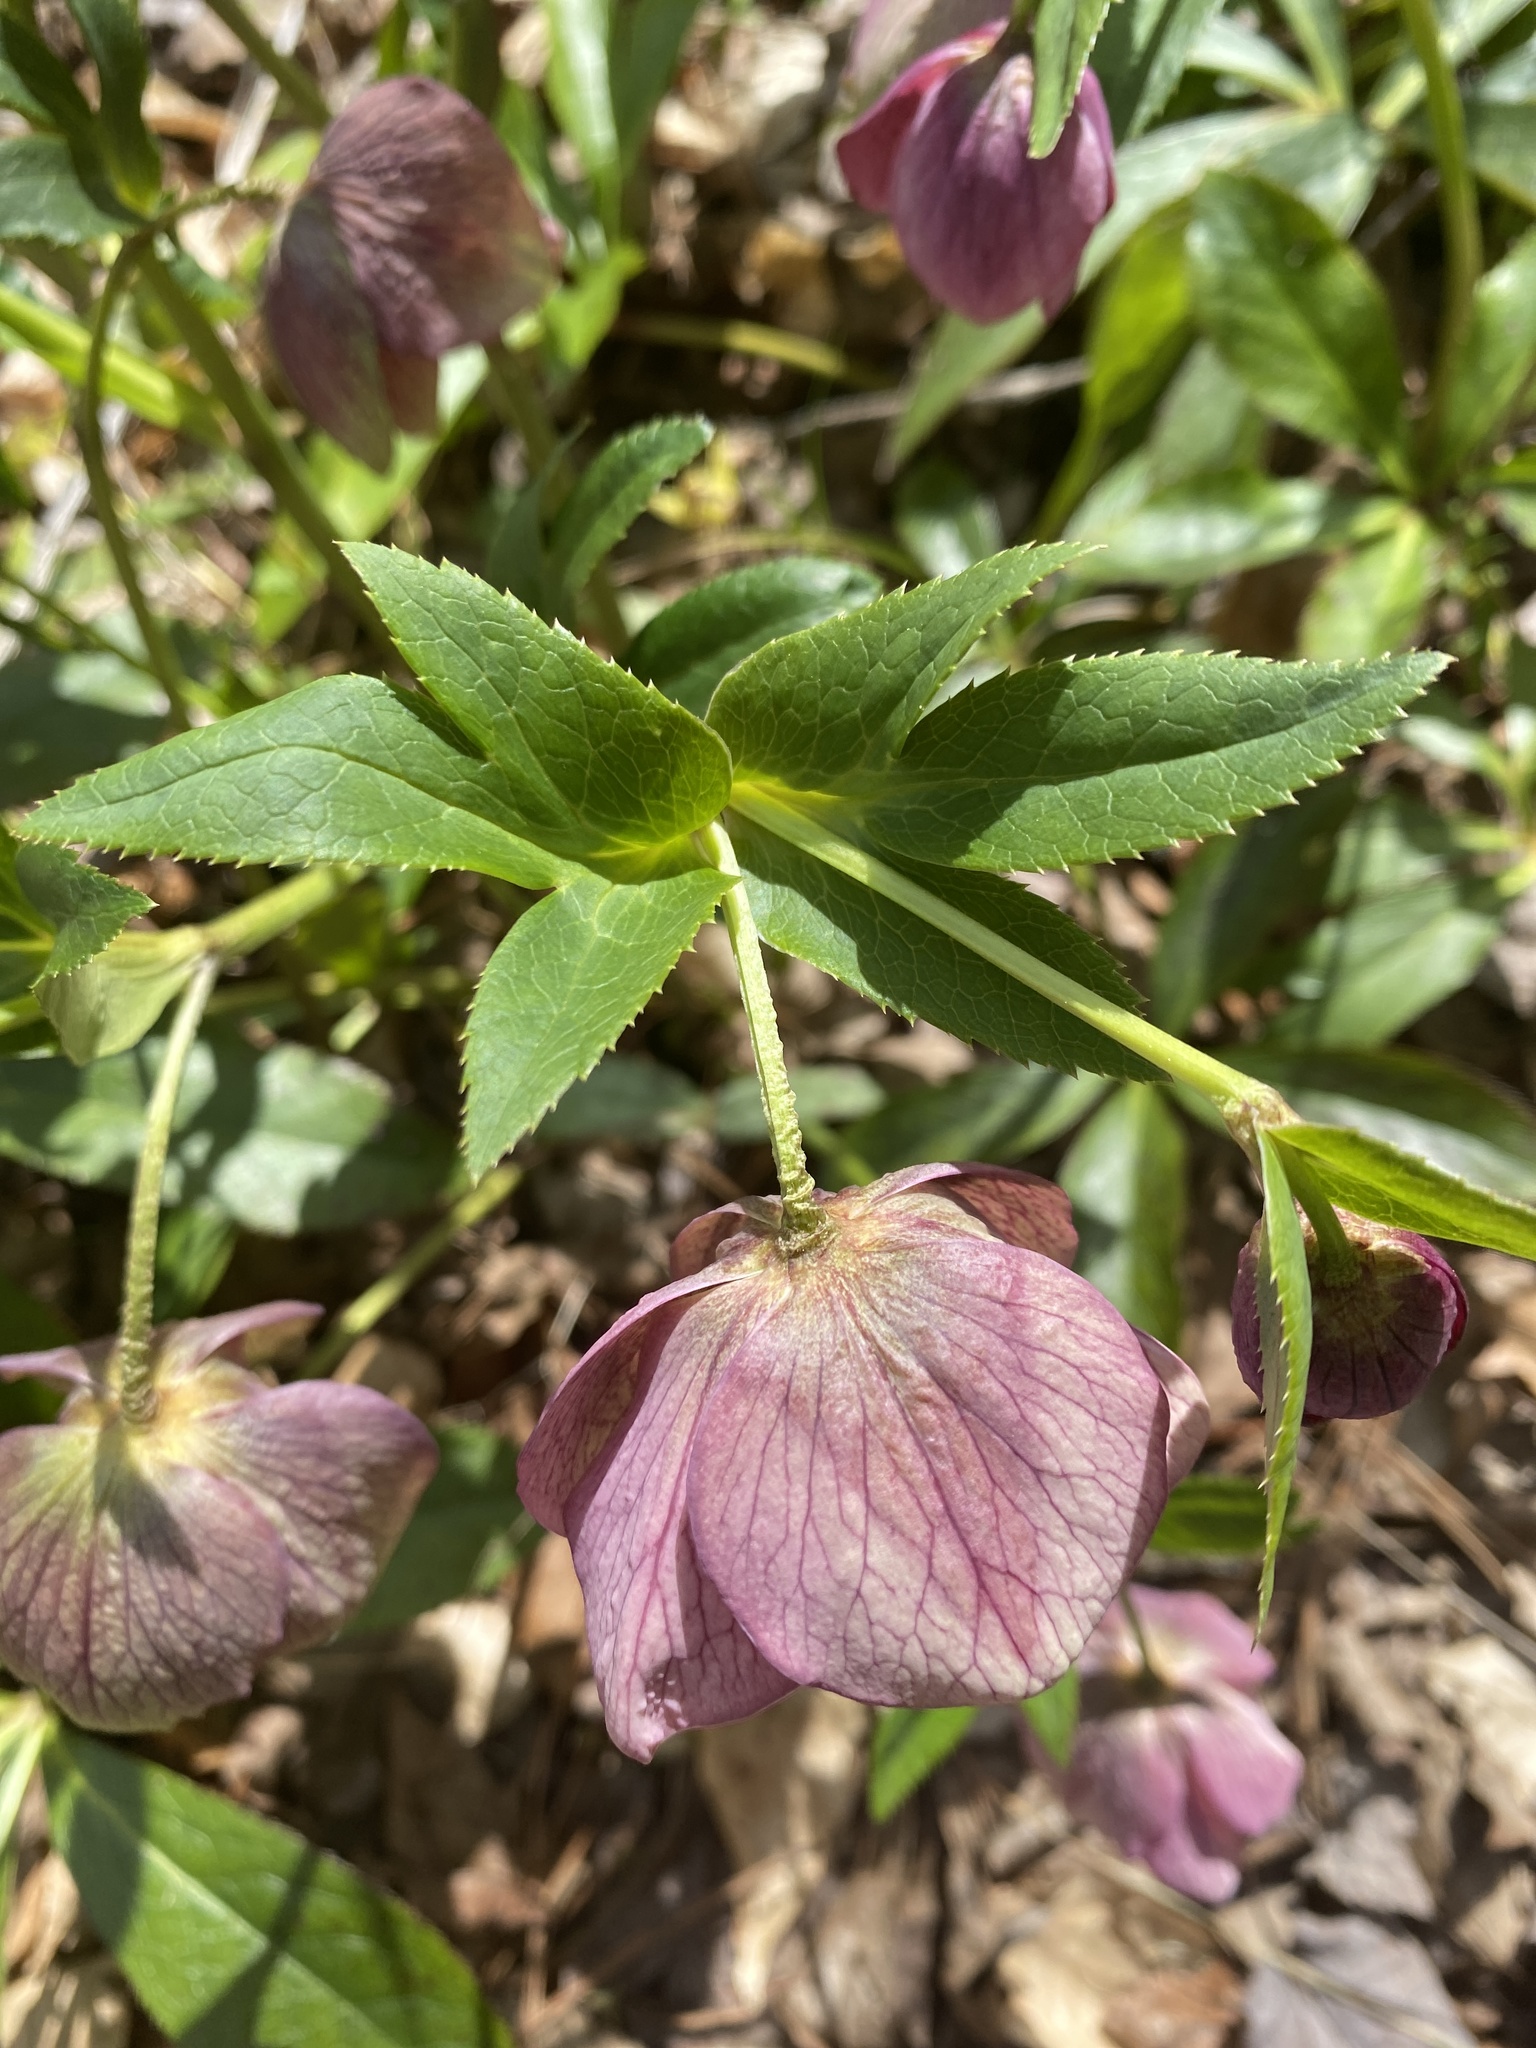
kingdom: Plantae
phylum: Tracheophyta
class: Magnoliopsida
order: Ranunculales
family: Ranunculaceae
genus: Helleborus
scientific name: Helleborus orientalis
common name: Lenten-rose
